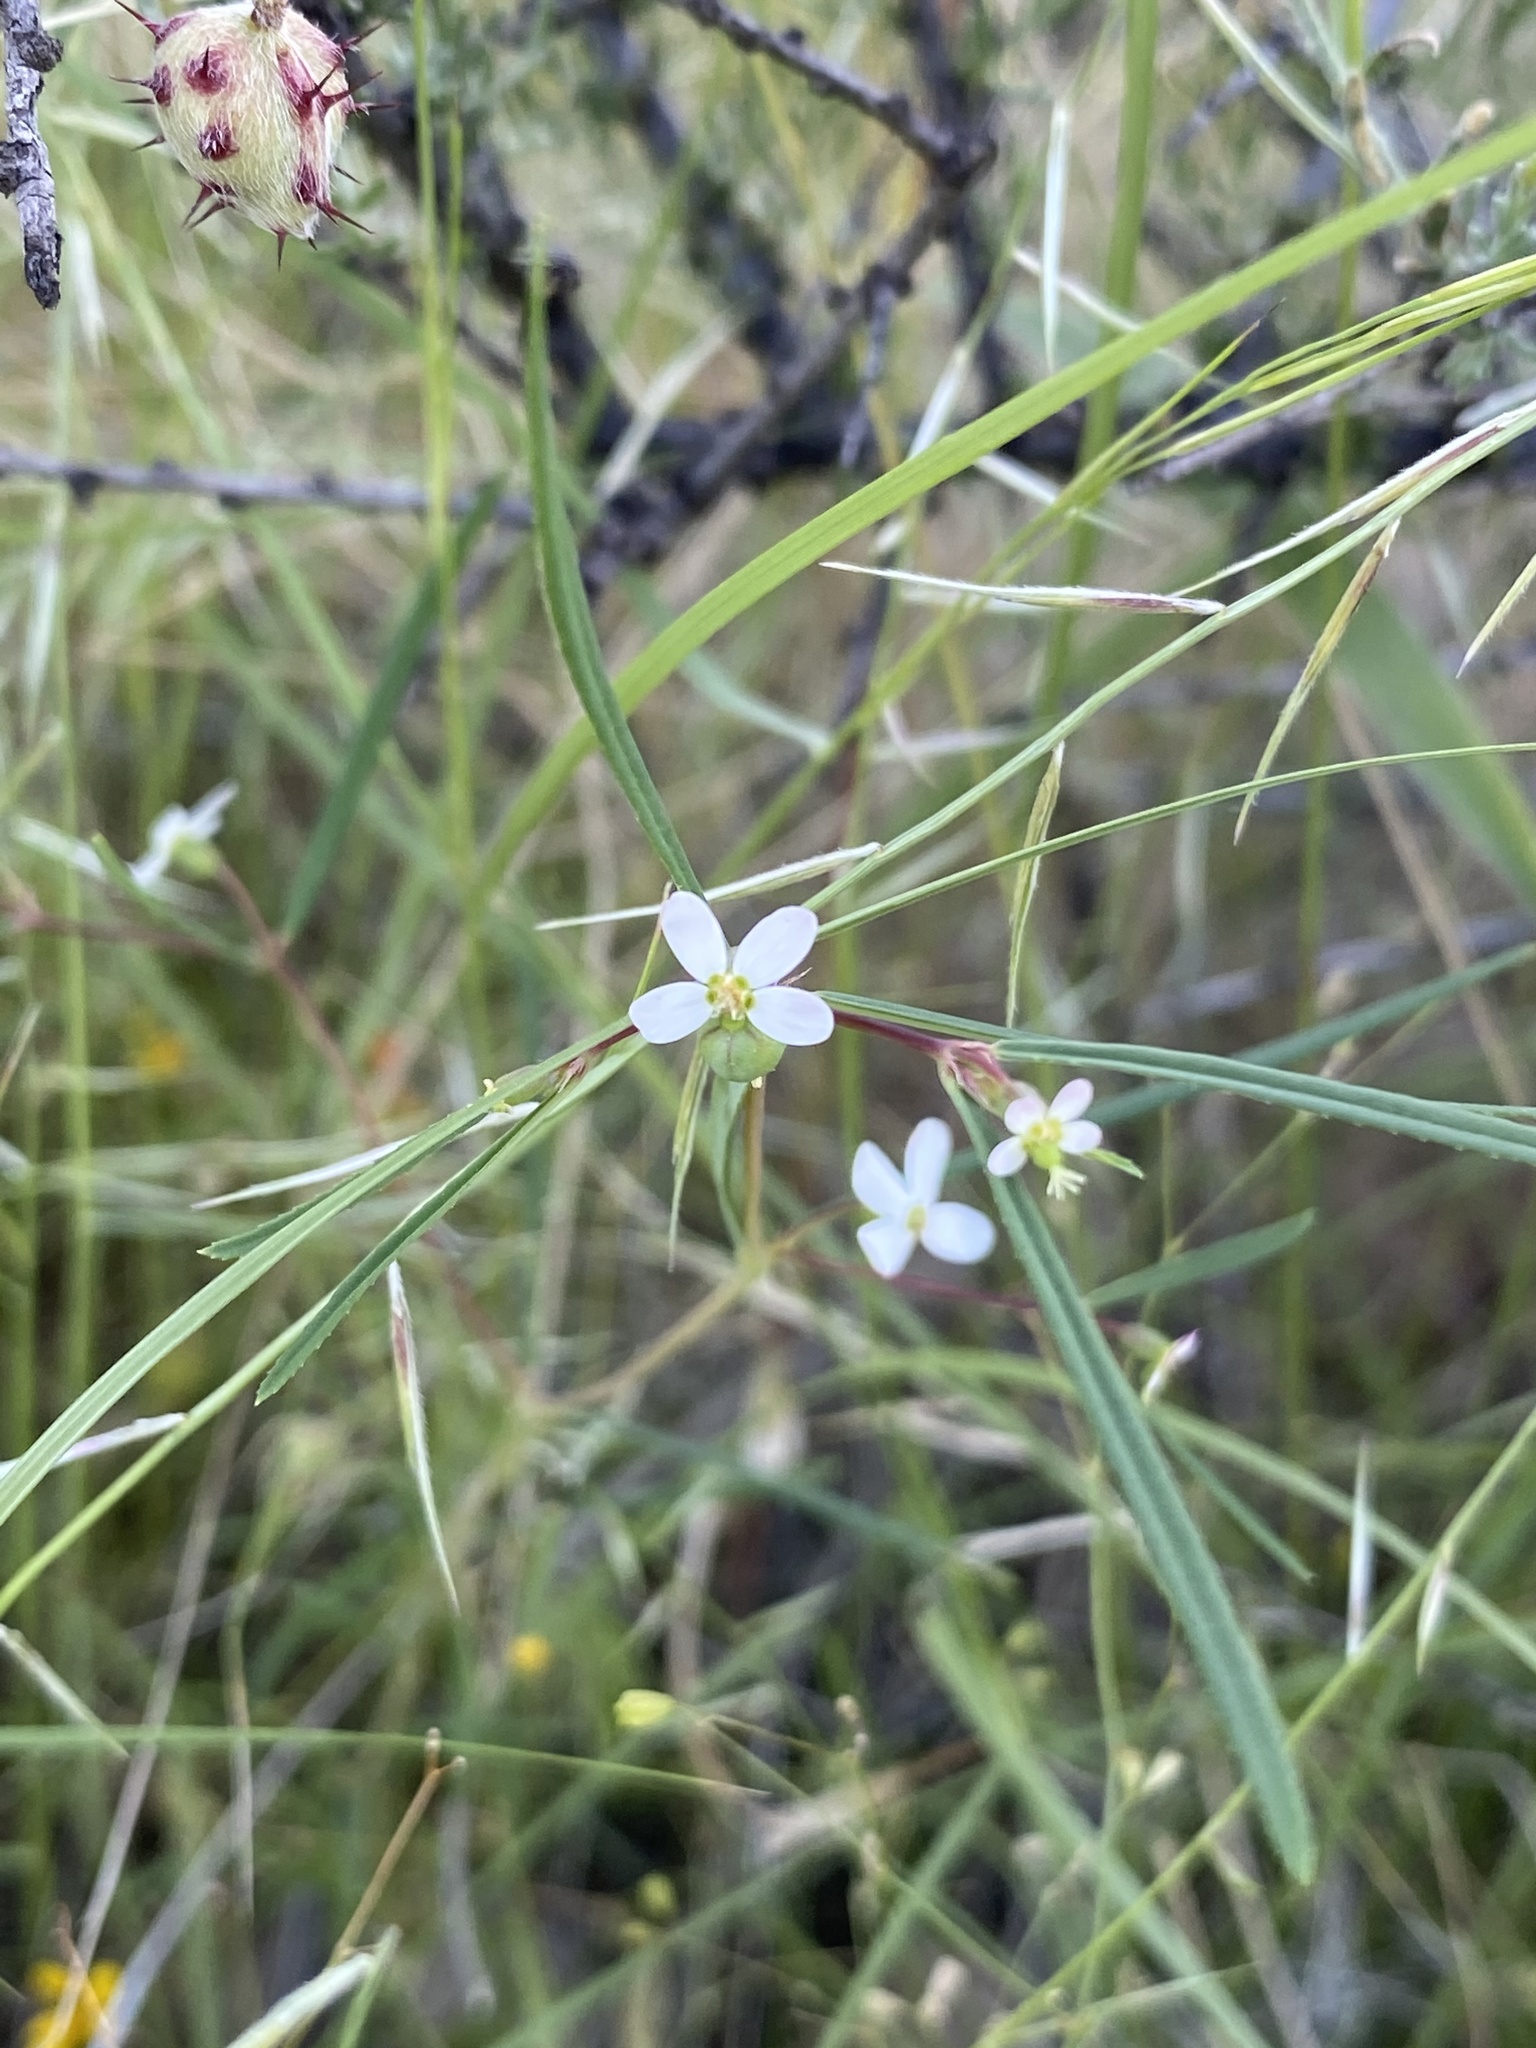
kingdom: Plantae
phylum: Tracheophyta
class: Magnoliopsida
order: Malpighiales
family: Euphorbiaceae
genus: Euphorbia
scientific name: Euphorbia florida
